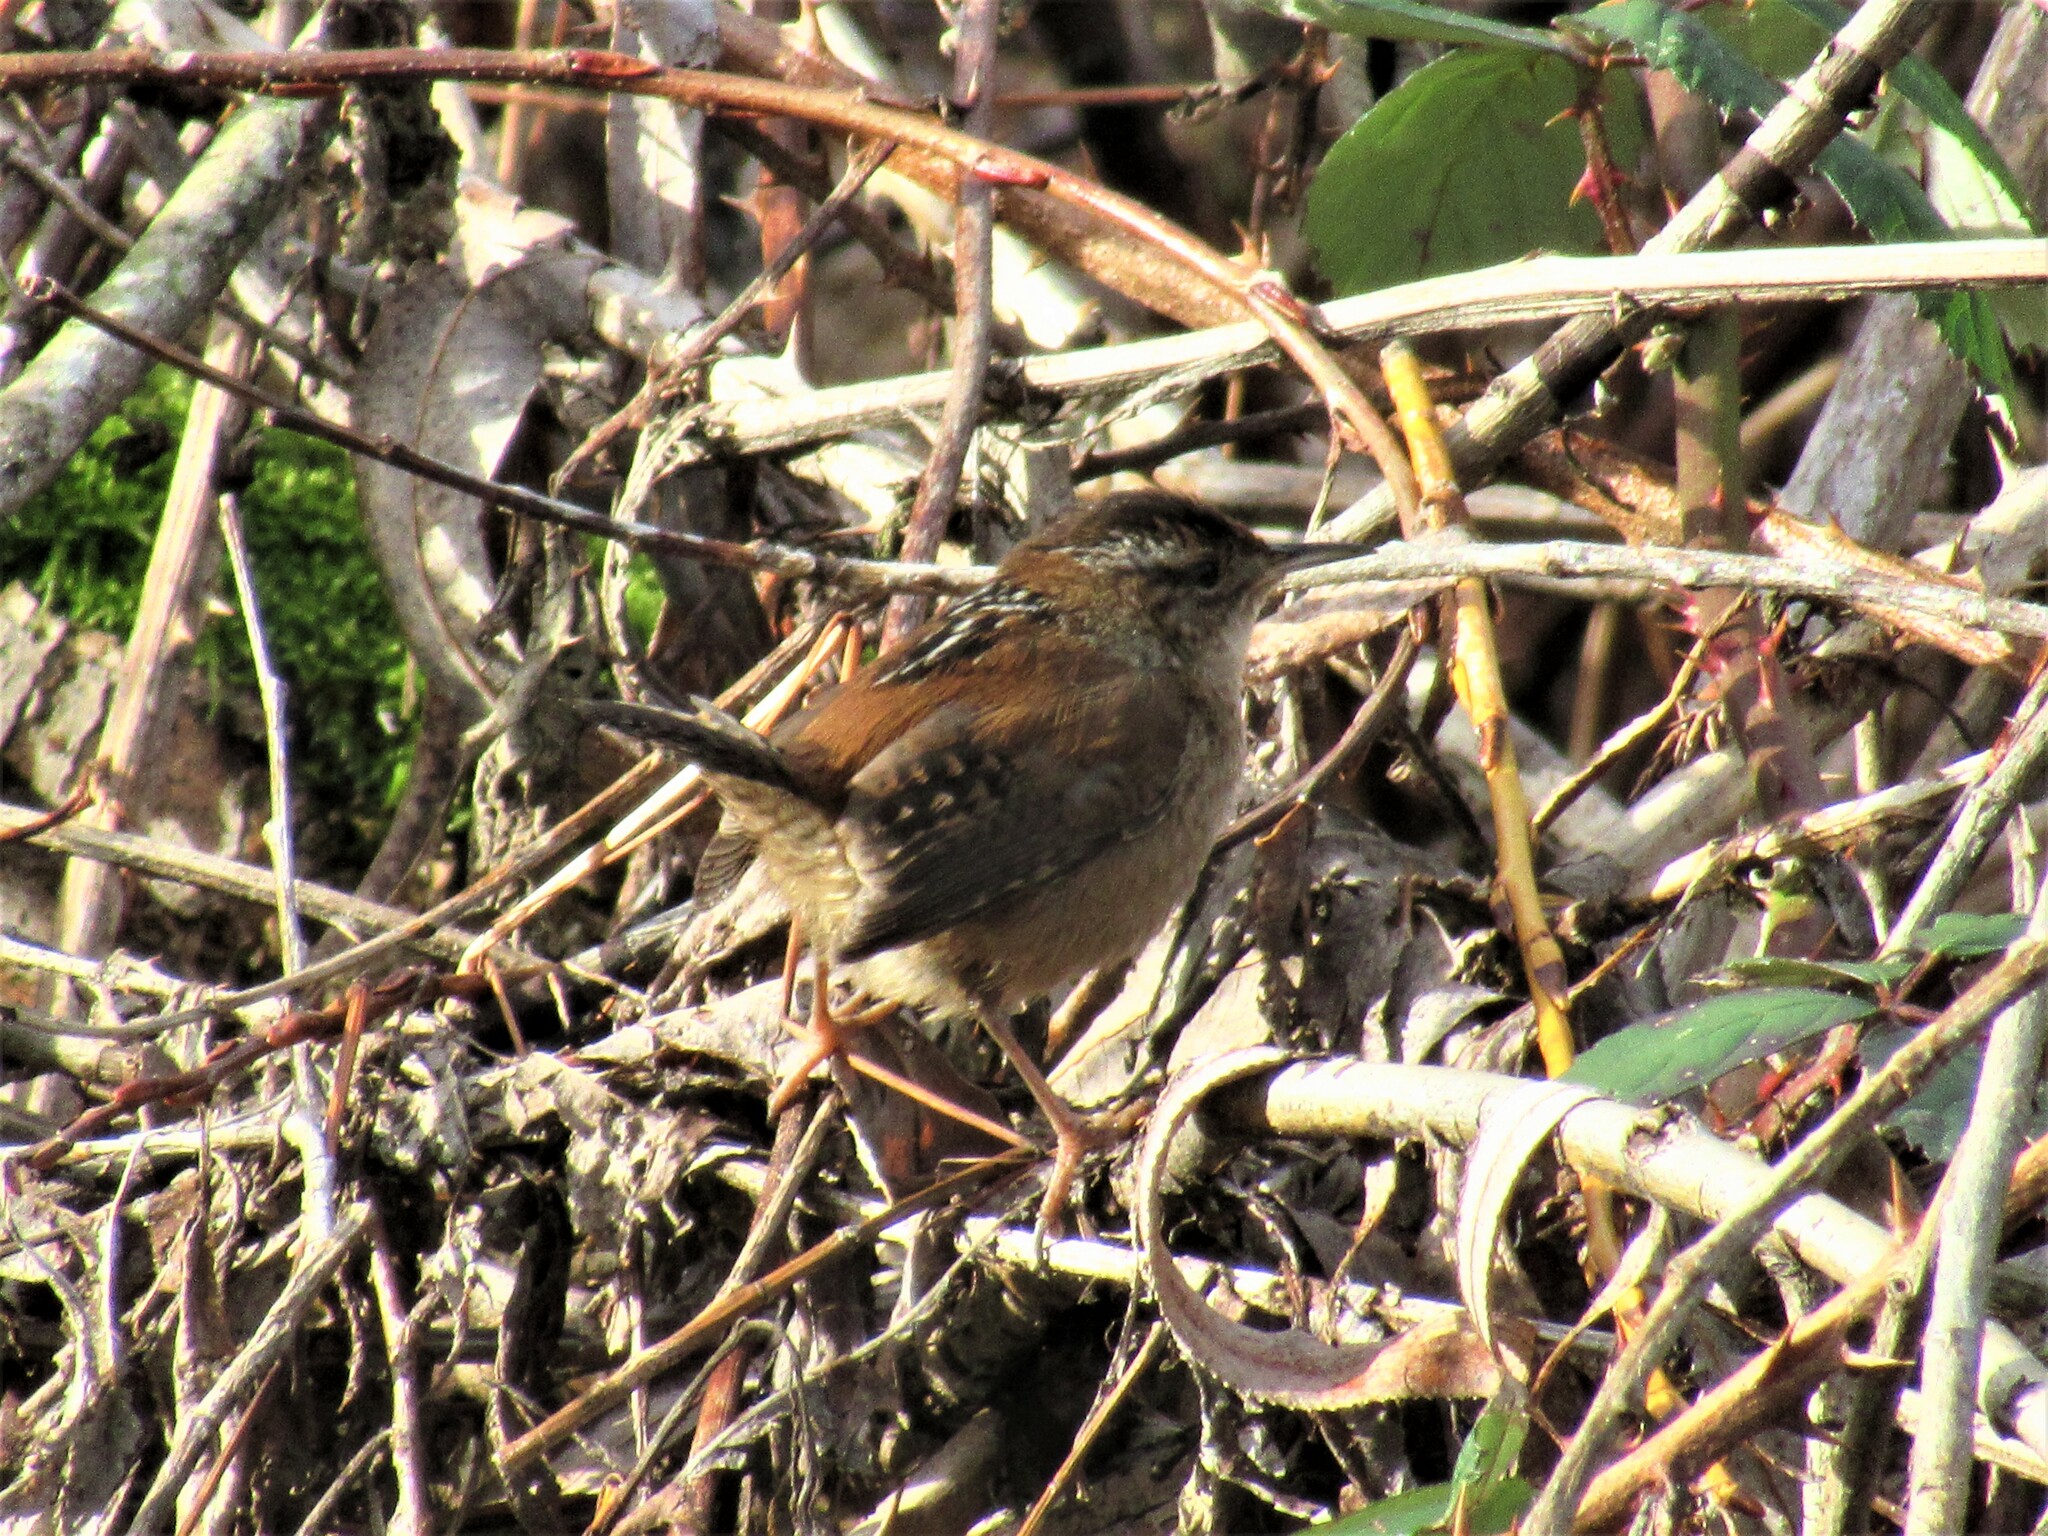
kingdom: Animalia
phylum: Chordata
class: Aves
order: Passeriformes
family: Troglodytidae
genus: Cistothorus
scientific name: Cistothorus palustris
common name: Marsh wren
